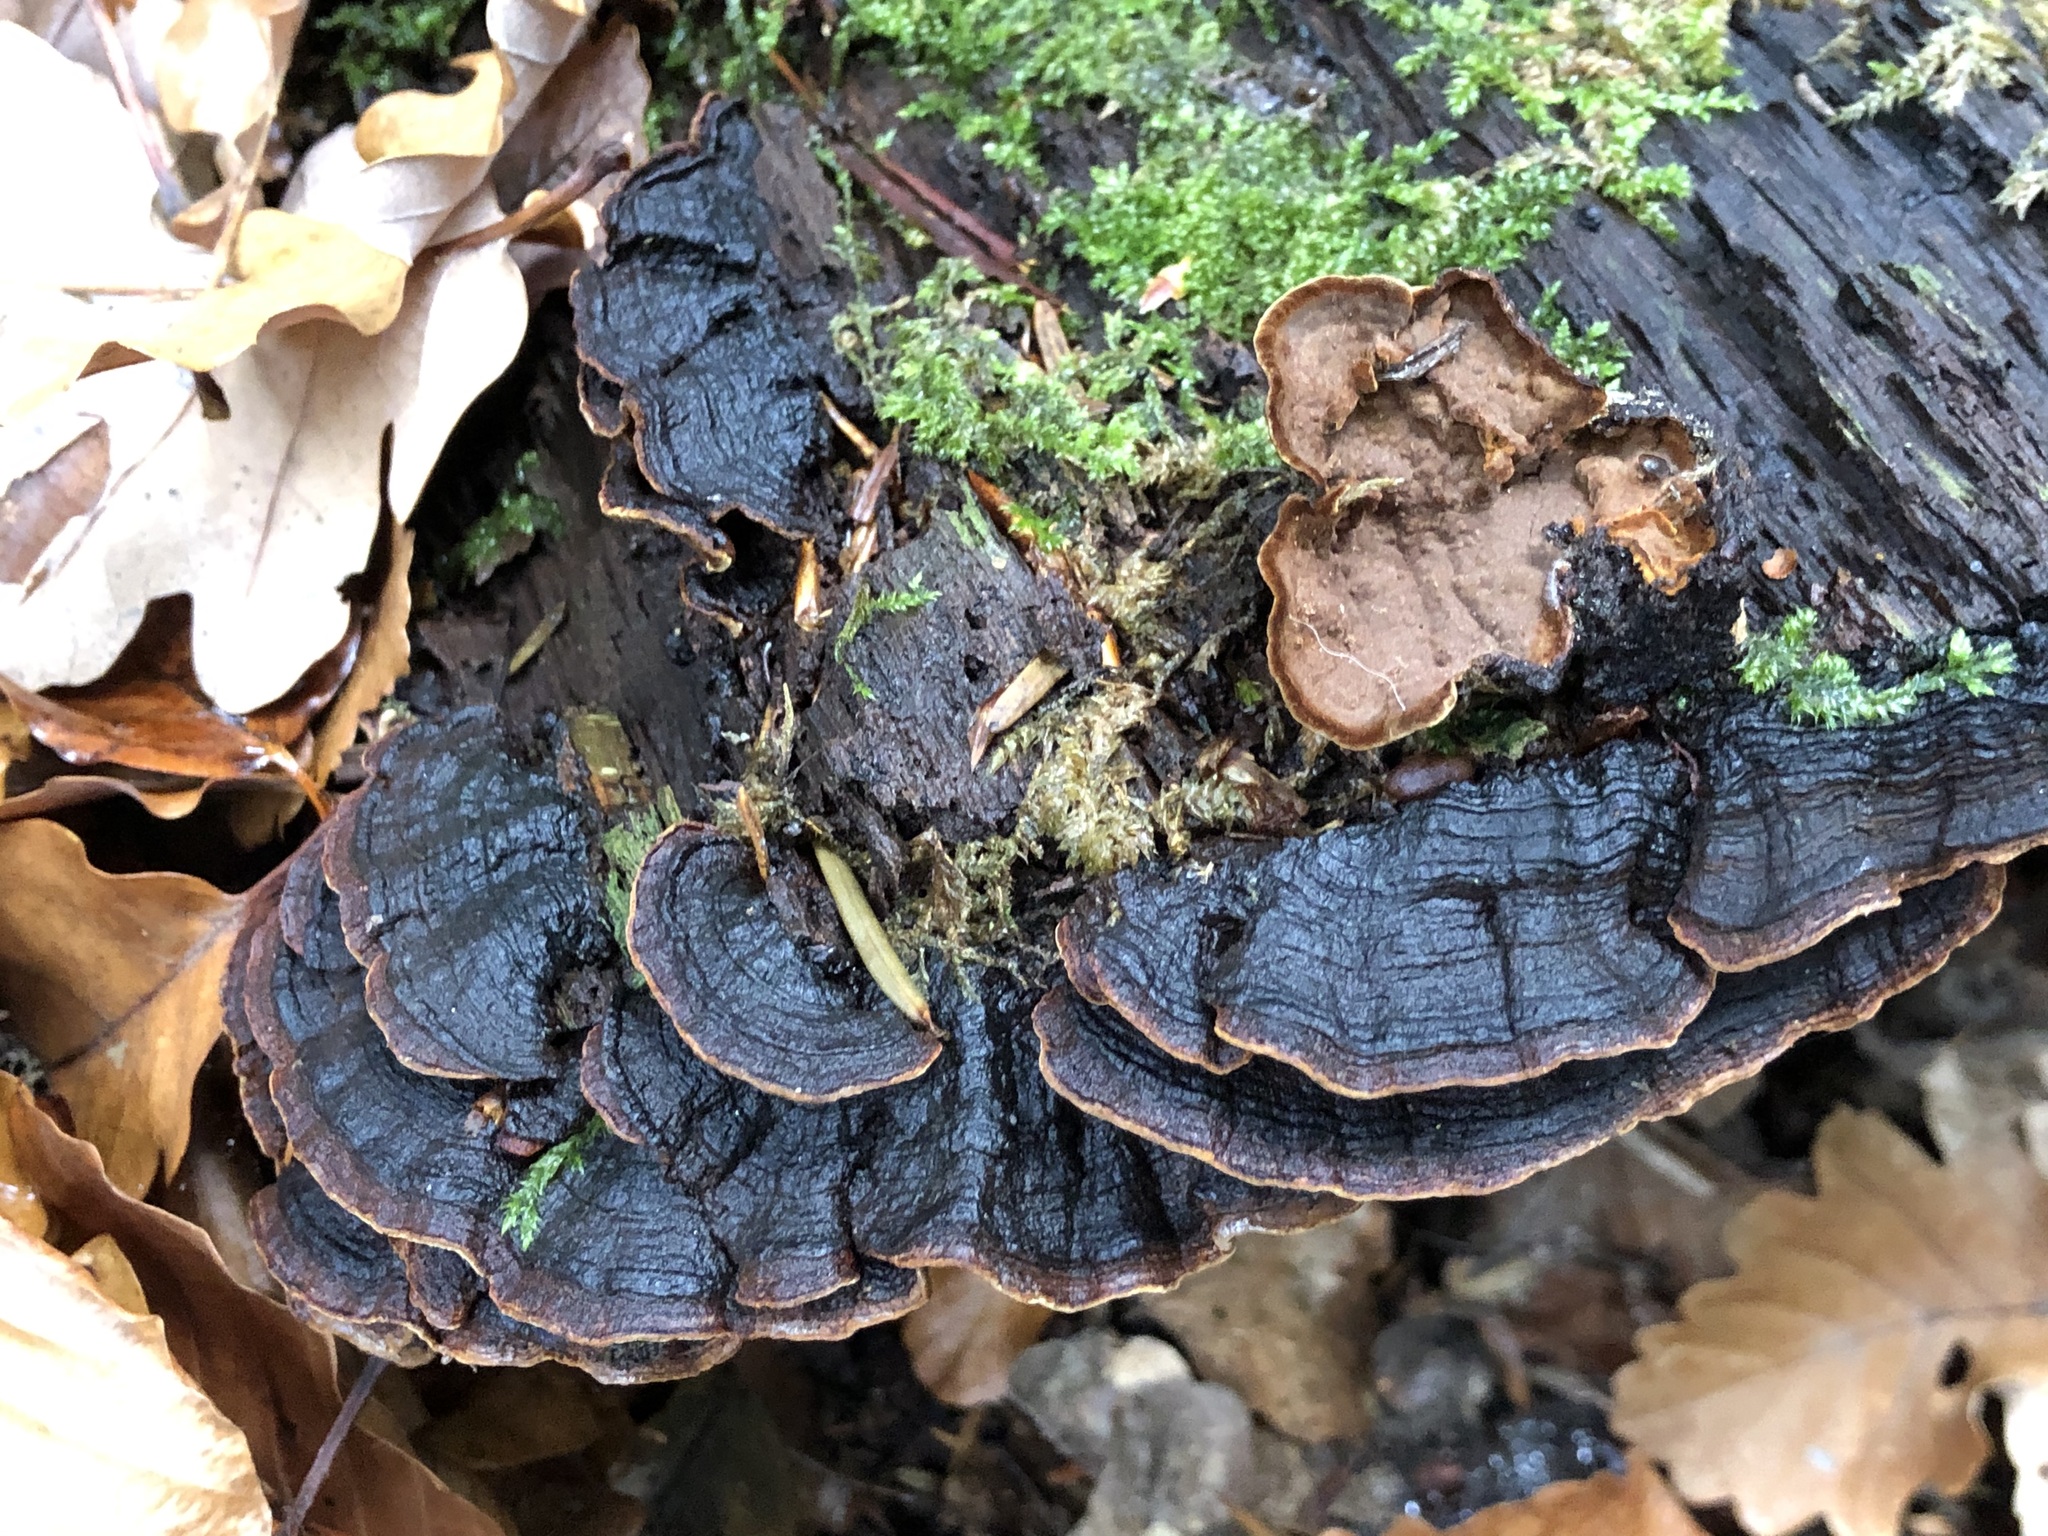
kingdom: Fungi
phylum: Basidiomycota
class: Agaricomycetes
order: Hymenochaetales
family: Hymenochaetaceae
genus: Hymenochaete
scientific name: Hymenochaete rubiginosa
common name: Oak curtain crust
